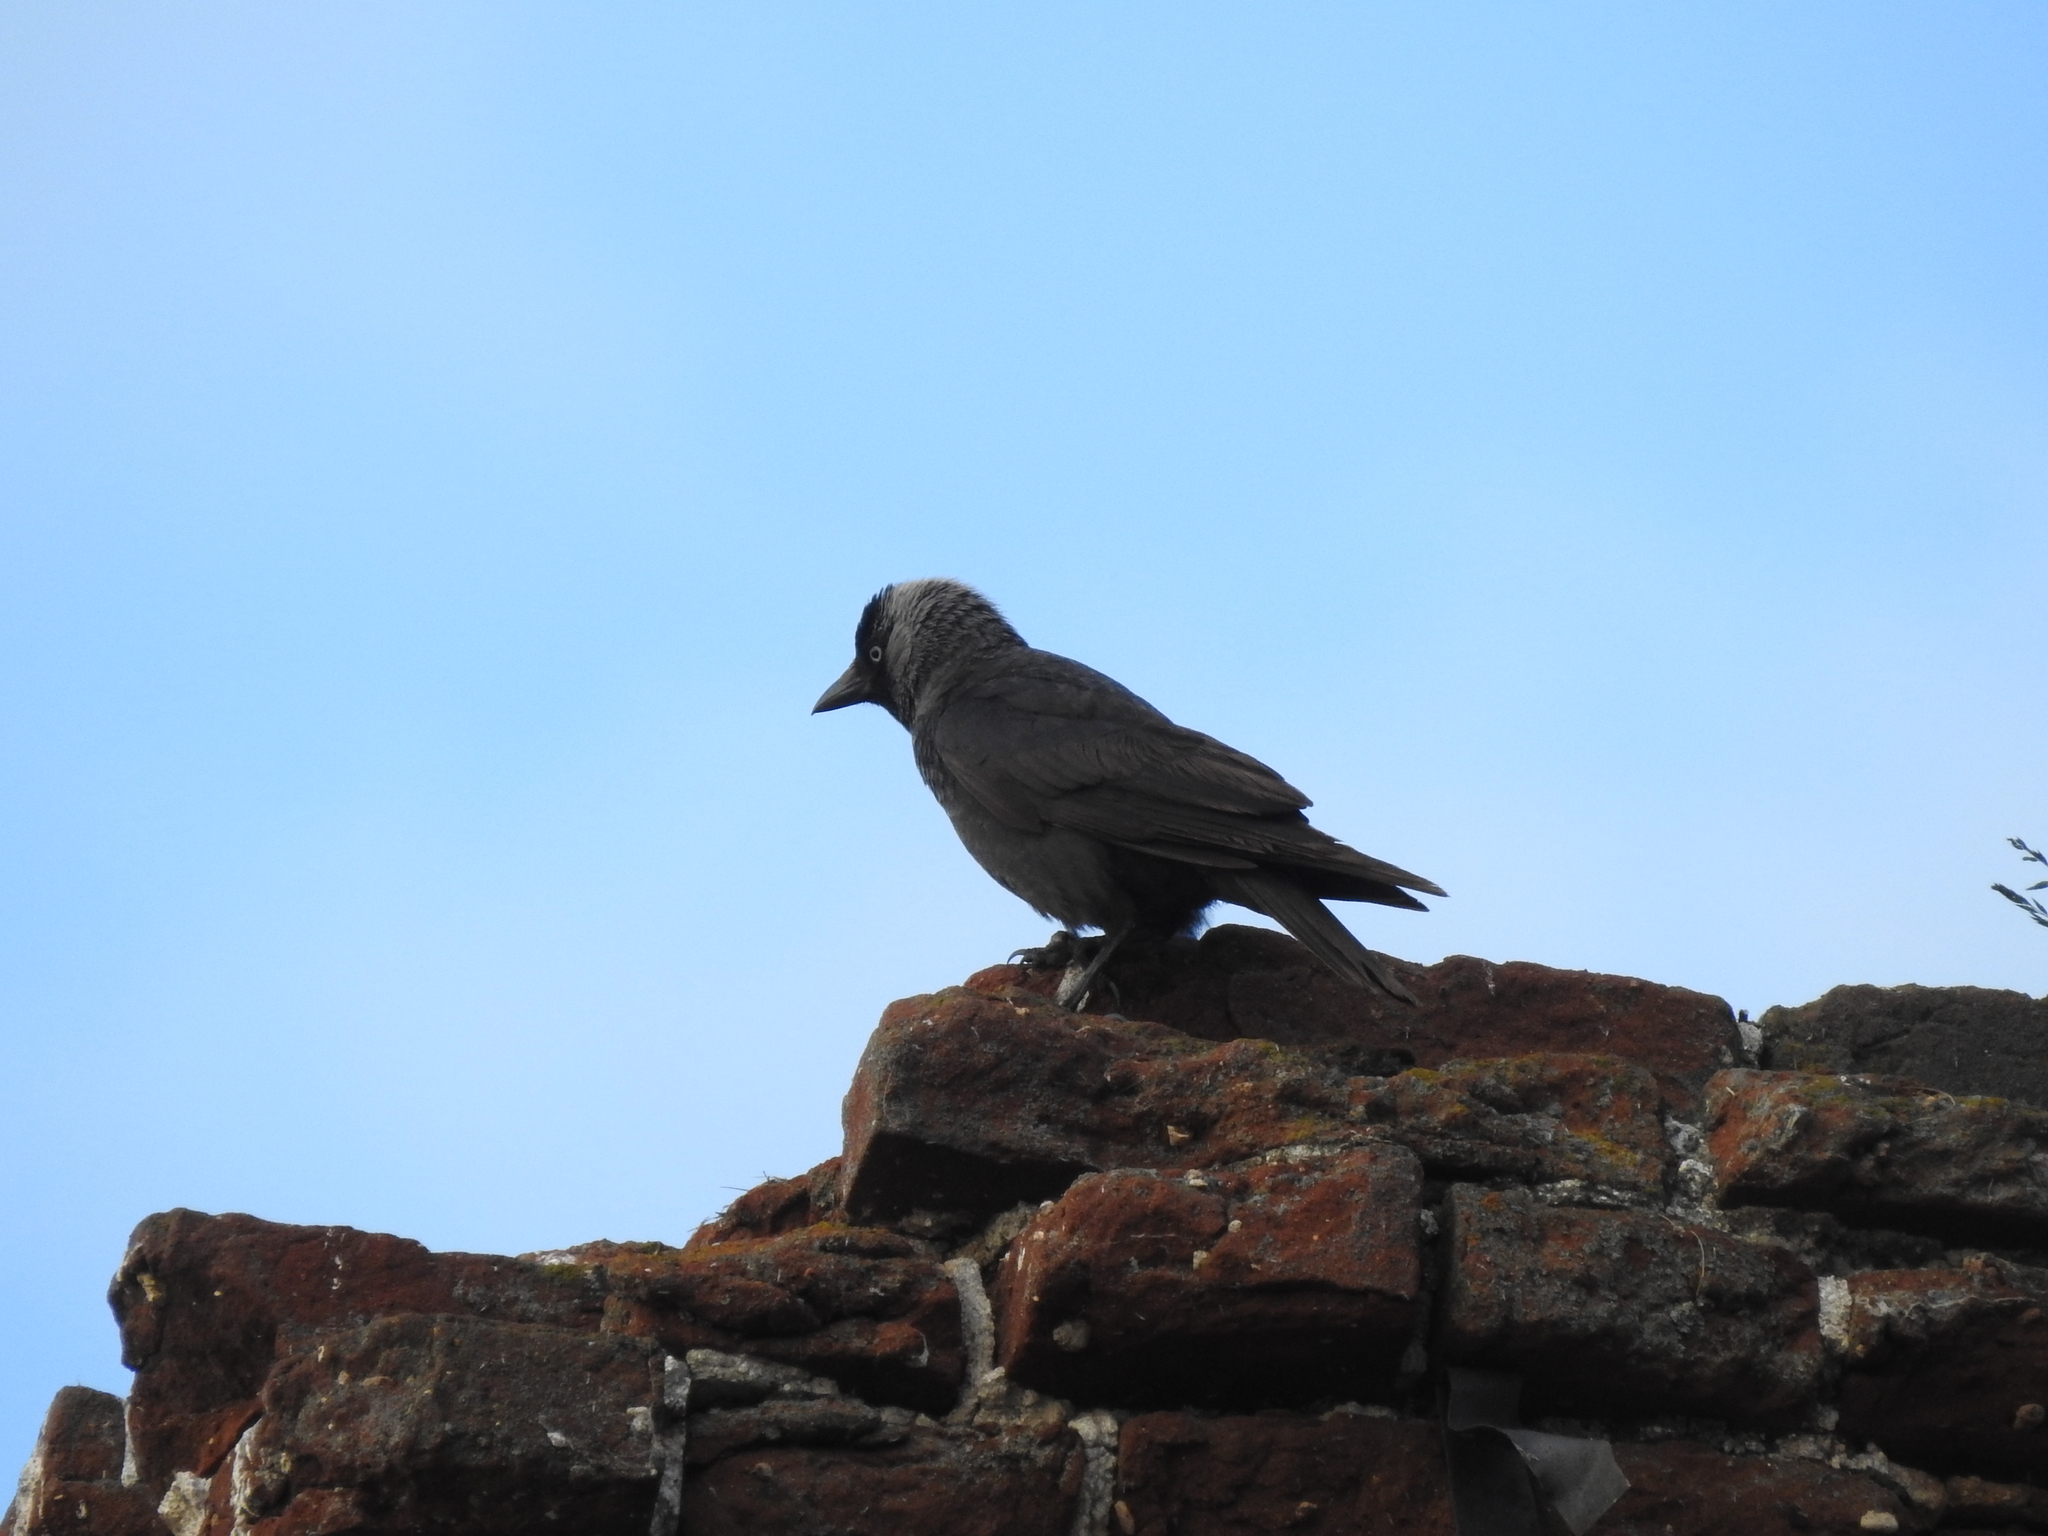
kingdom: Animalia
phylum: Chordata
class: Aves
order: Passeriformes
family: Corvidae
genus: Coloeus
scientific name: Coloeus monedula
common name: Western jackdaw
